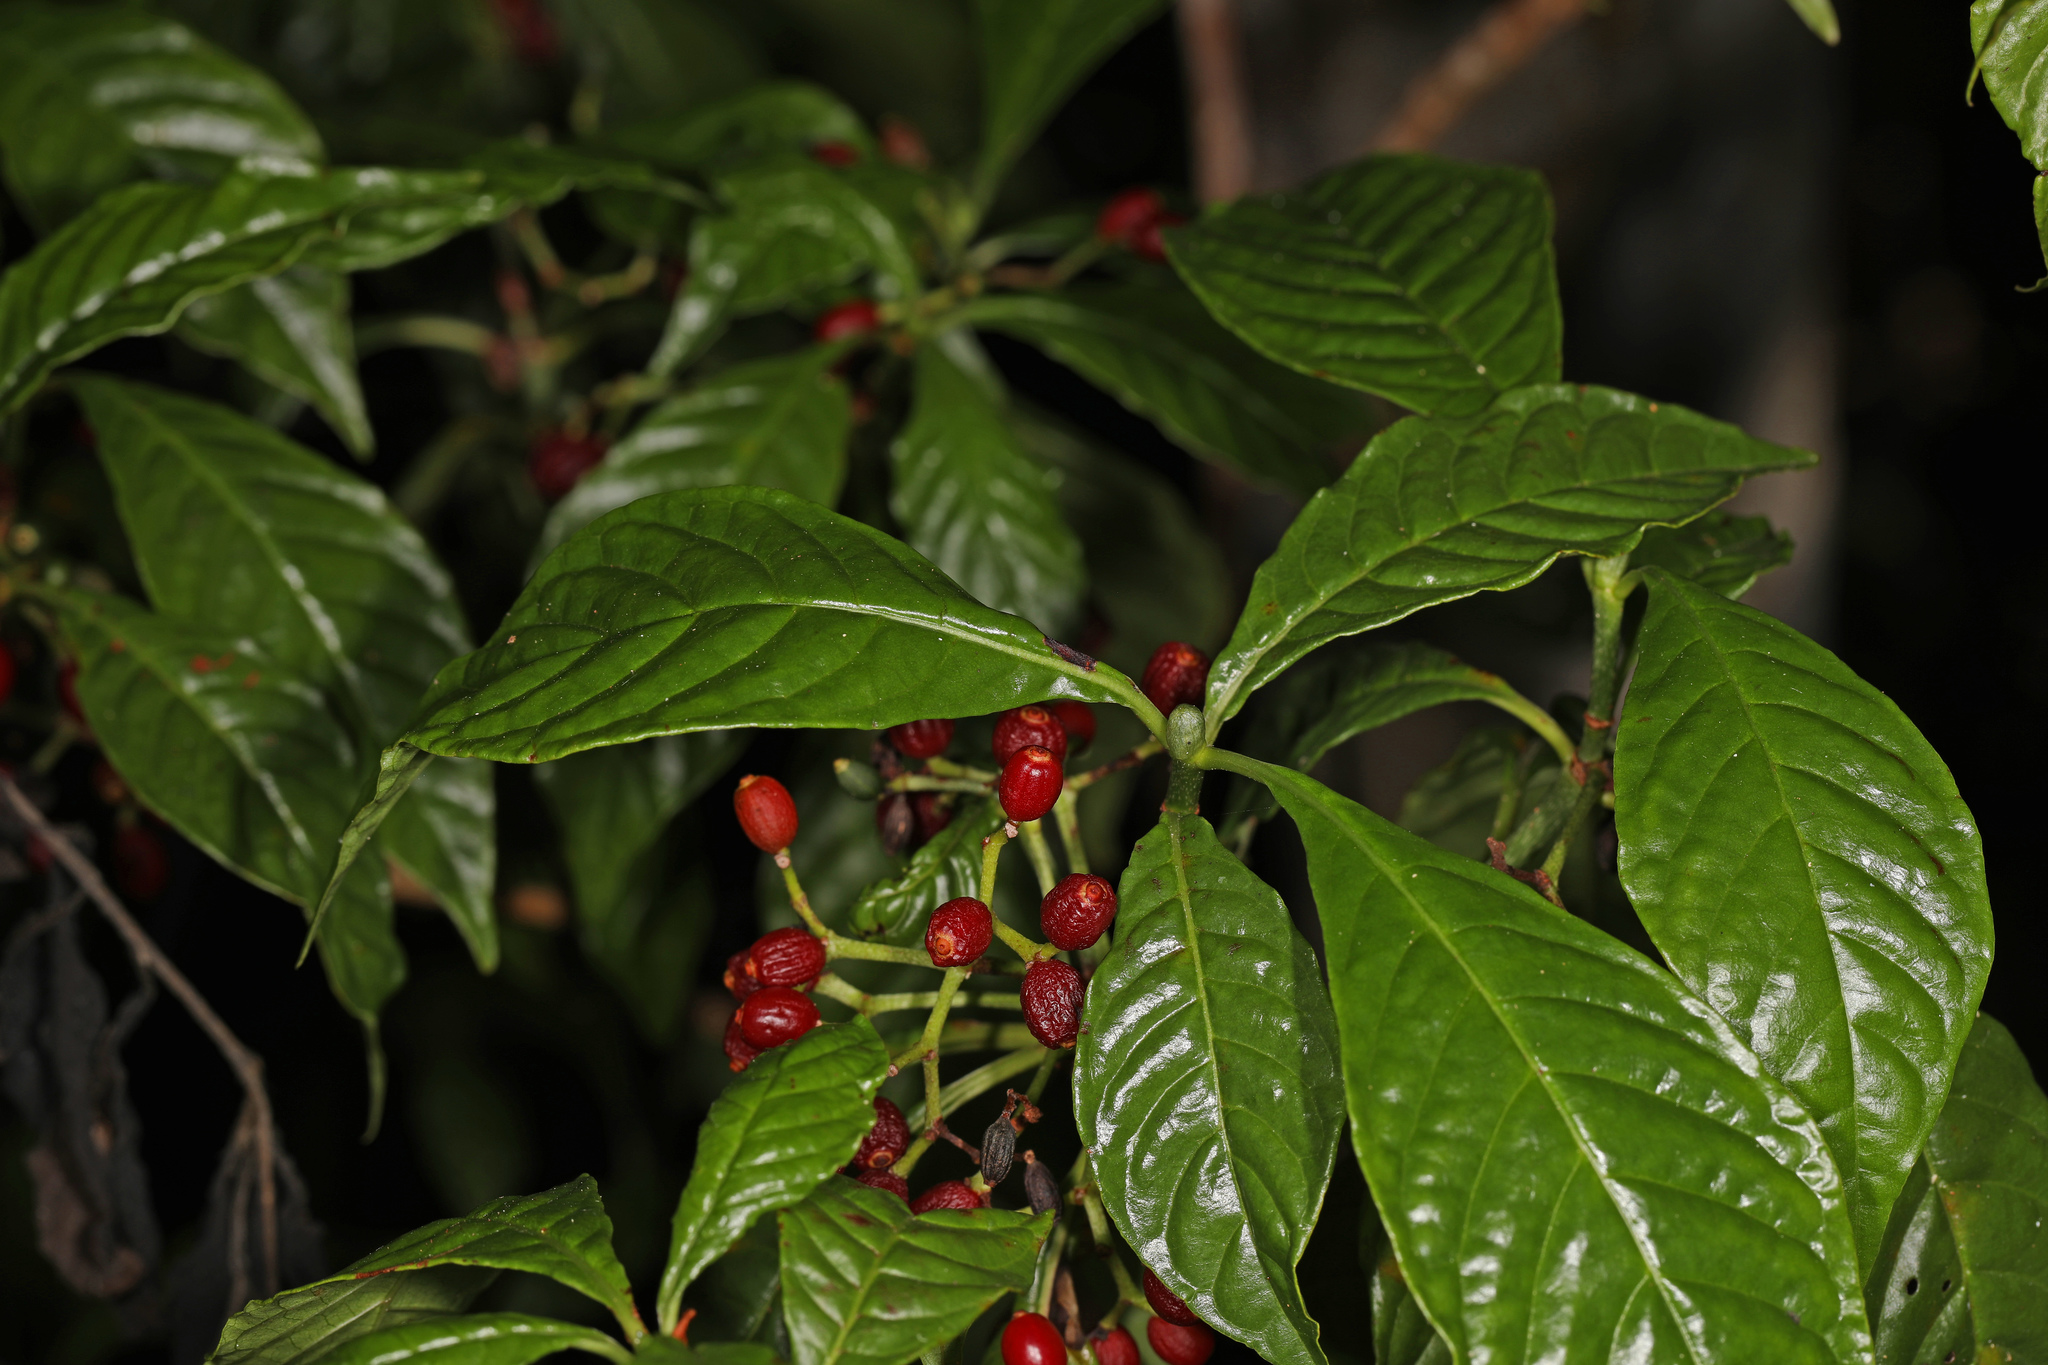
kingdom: Plantae
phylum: Tracheophyta
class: Magnoliopsida
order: Gentianales
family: Rubiaceae
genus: Psychotria
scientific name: Psychotria nervosa
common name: Bastard cankerberry
